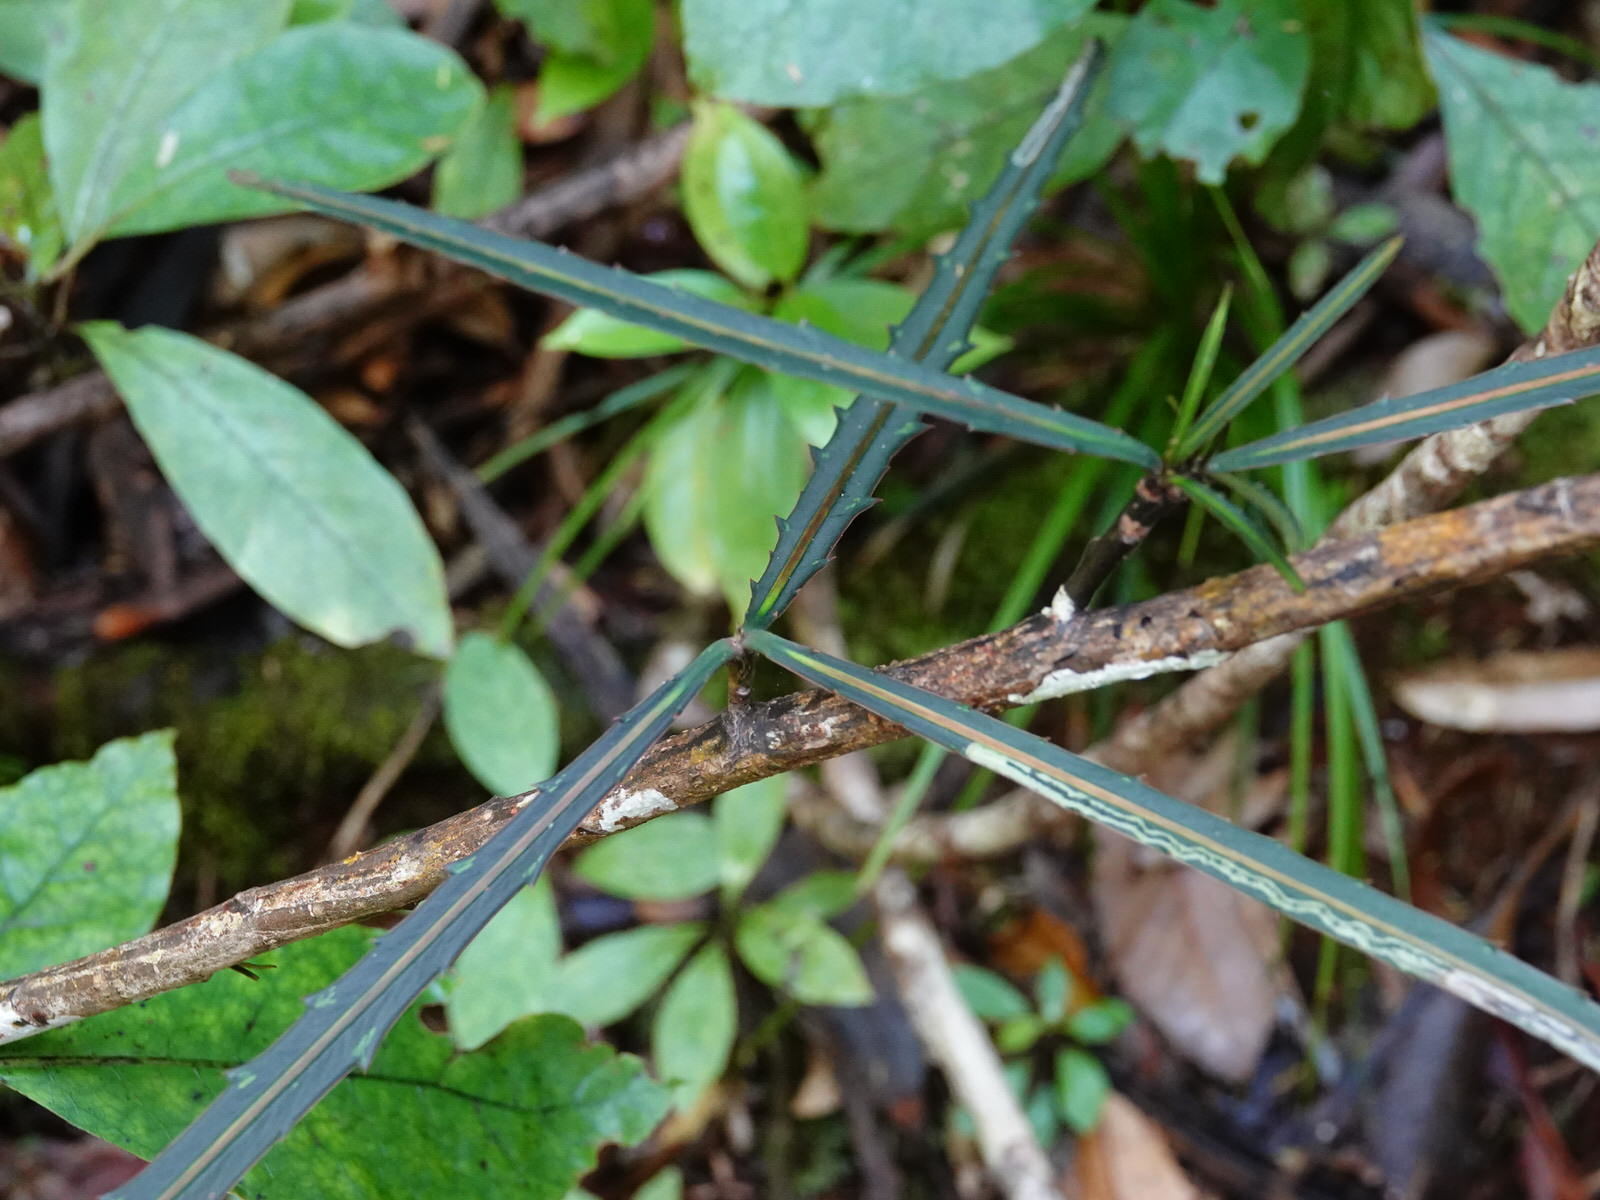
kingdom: Plantae
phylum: Tracheophyta
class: Magnoliopsida
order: Apiales
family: Araliaceae
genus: Pseudopanax
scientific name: Pseudopanax crassifolius
